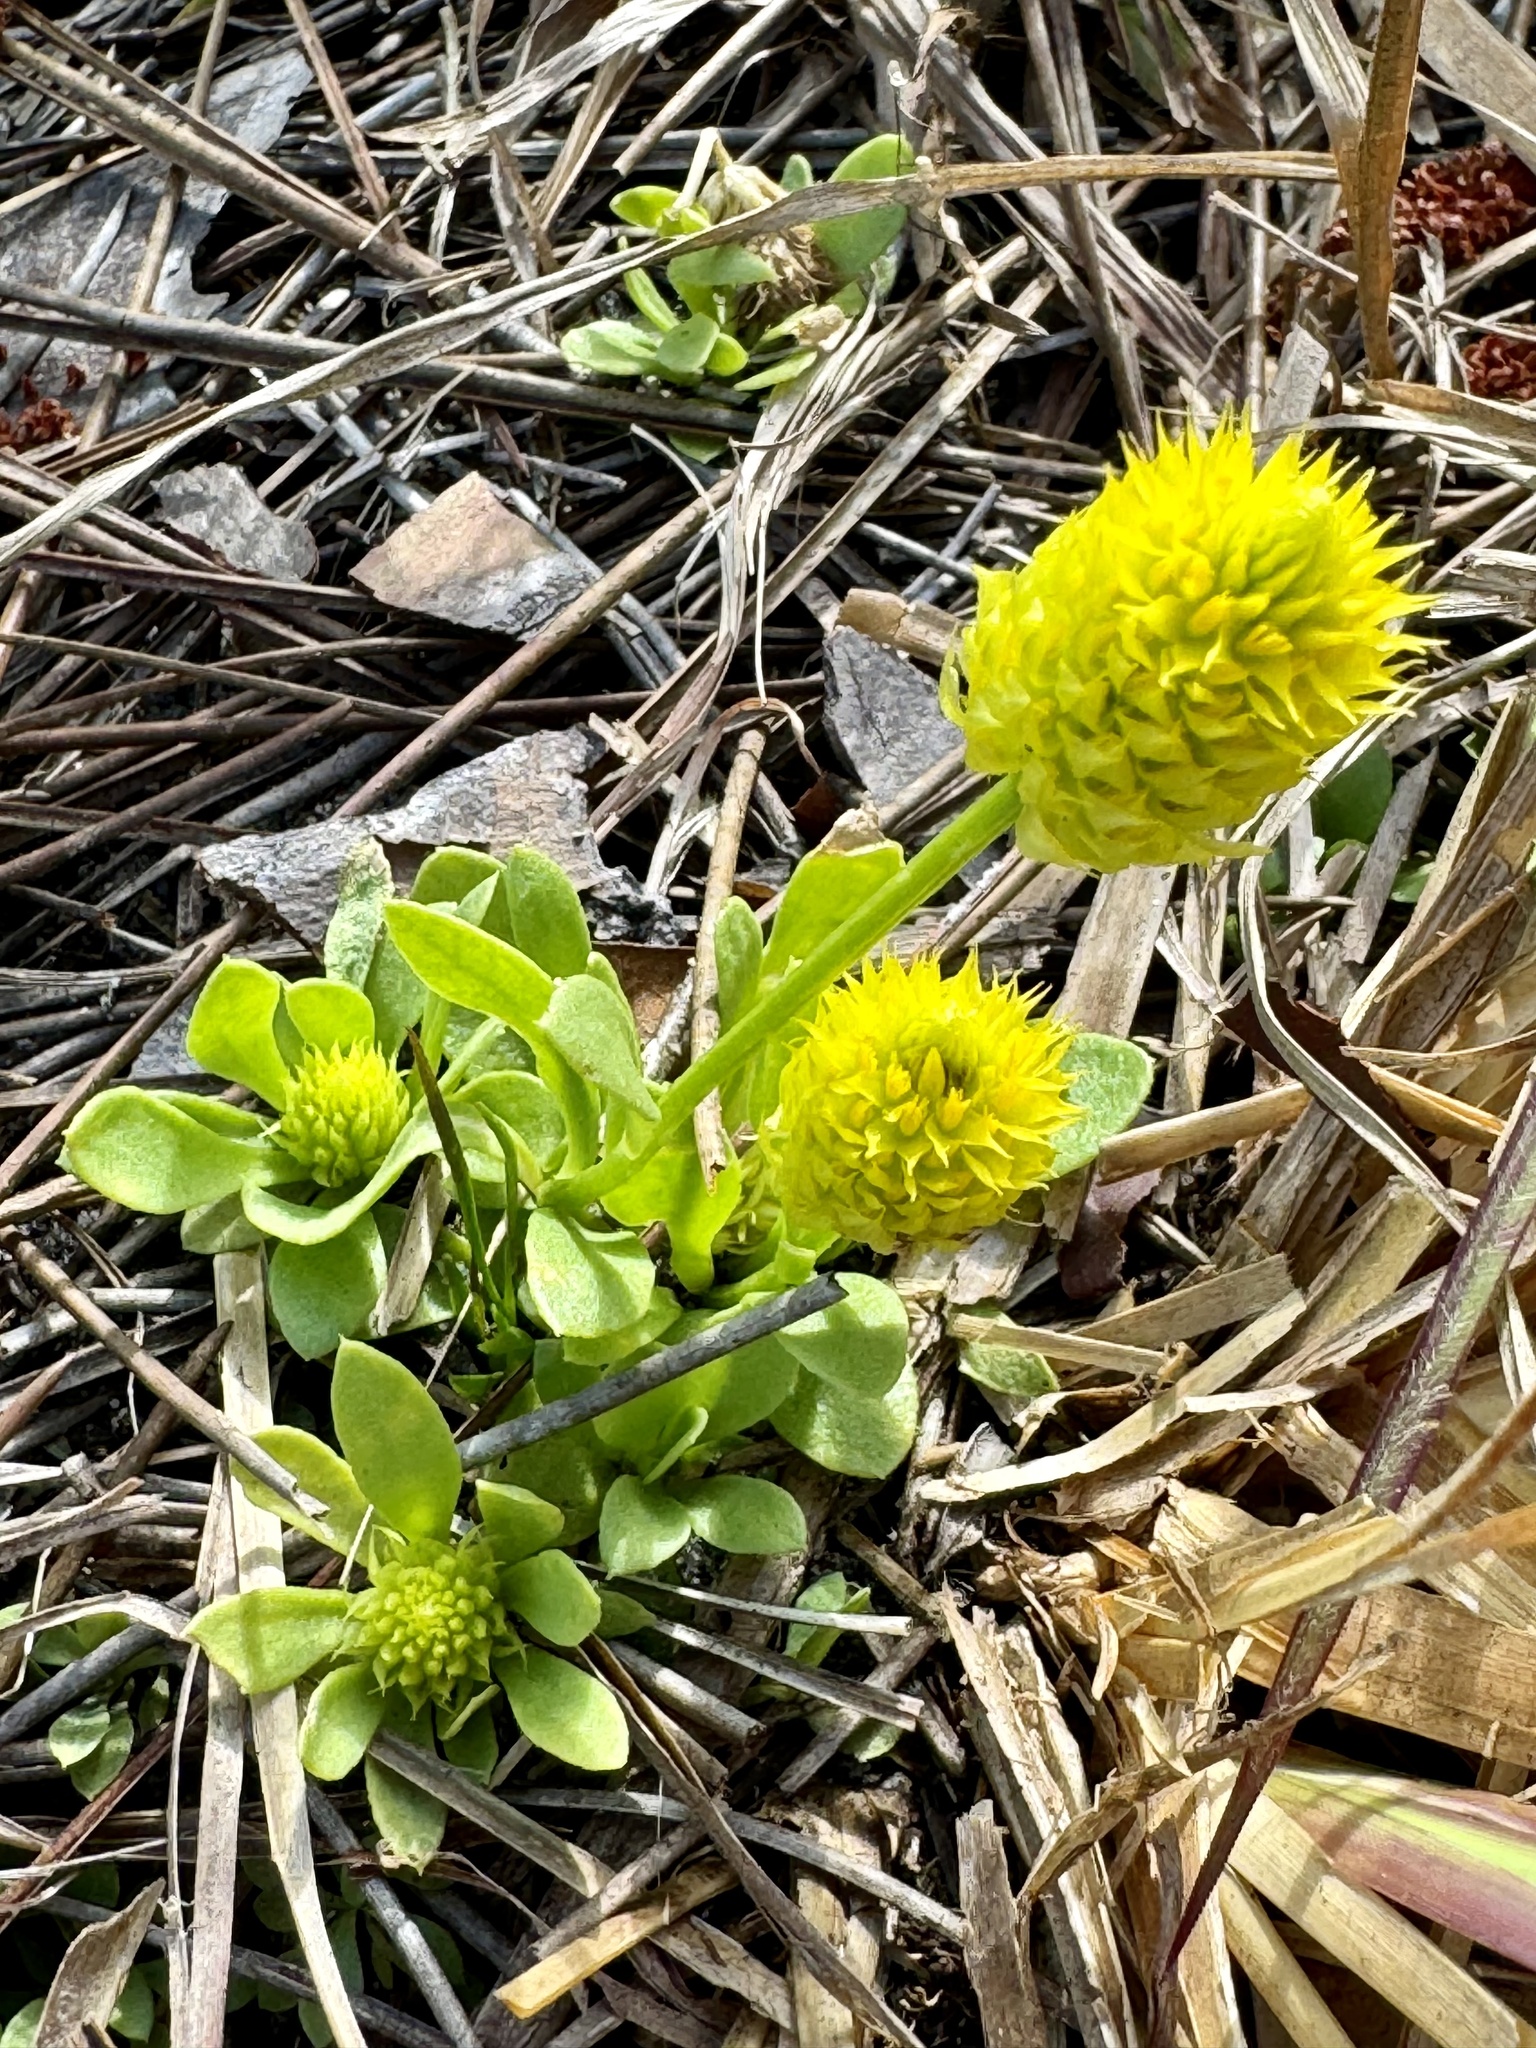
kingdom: Plantae
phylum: Tracheophyta
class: Magnoliopsida
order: Fabales
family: Polygalaceae
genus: Polygala
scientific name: Polygala nana
